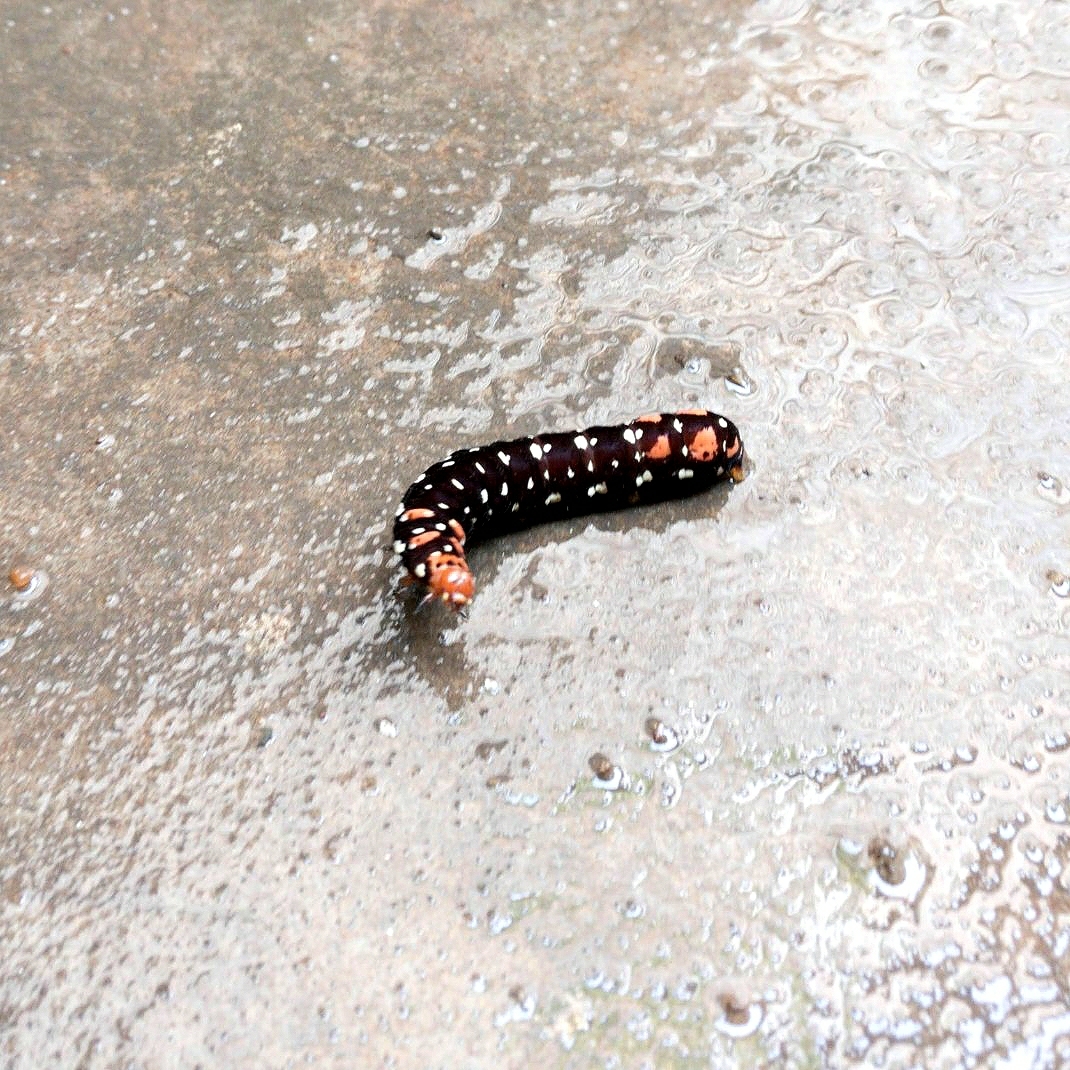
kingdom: Animalia
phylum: Arthropoda
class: Insecta
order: Lepidoptera
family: Noctuidae
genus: Polytela
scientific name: Polytela gloriosae
